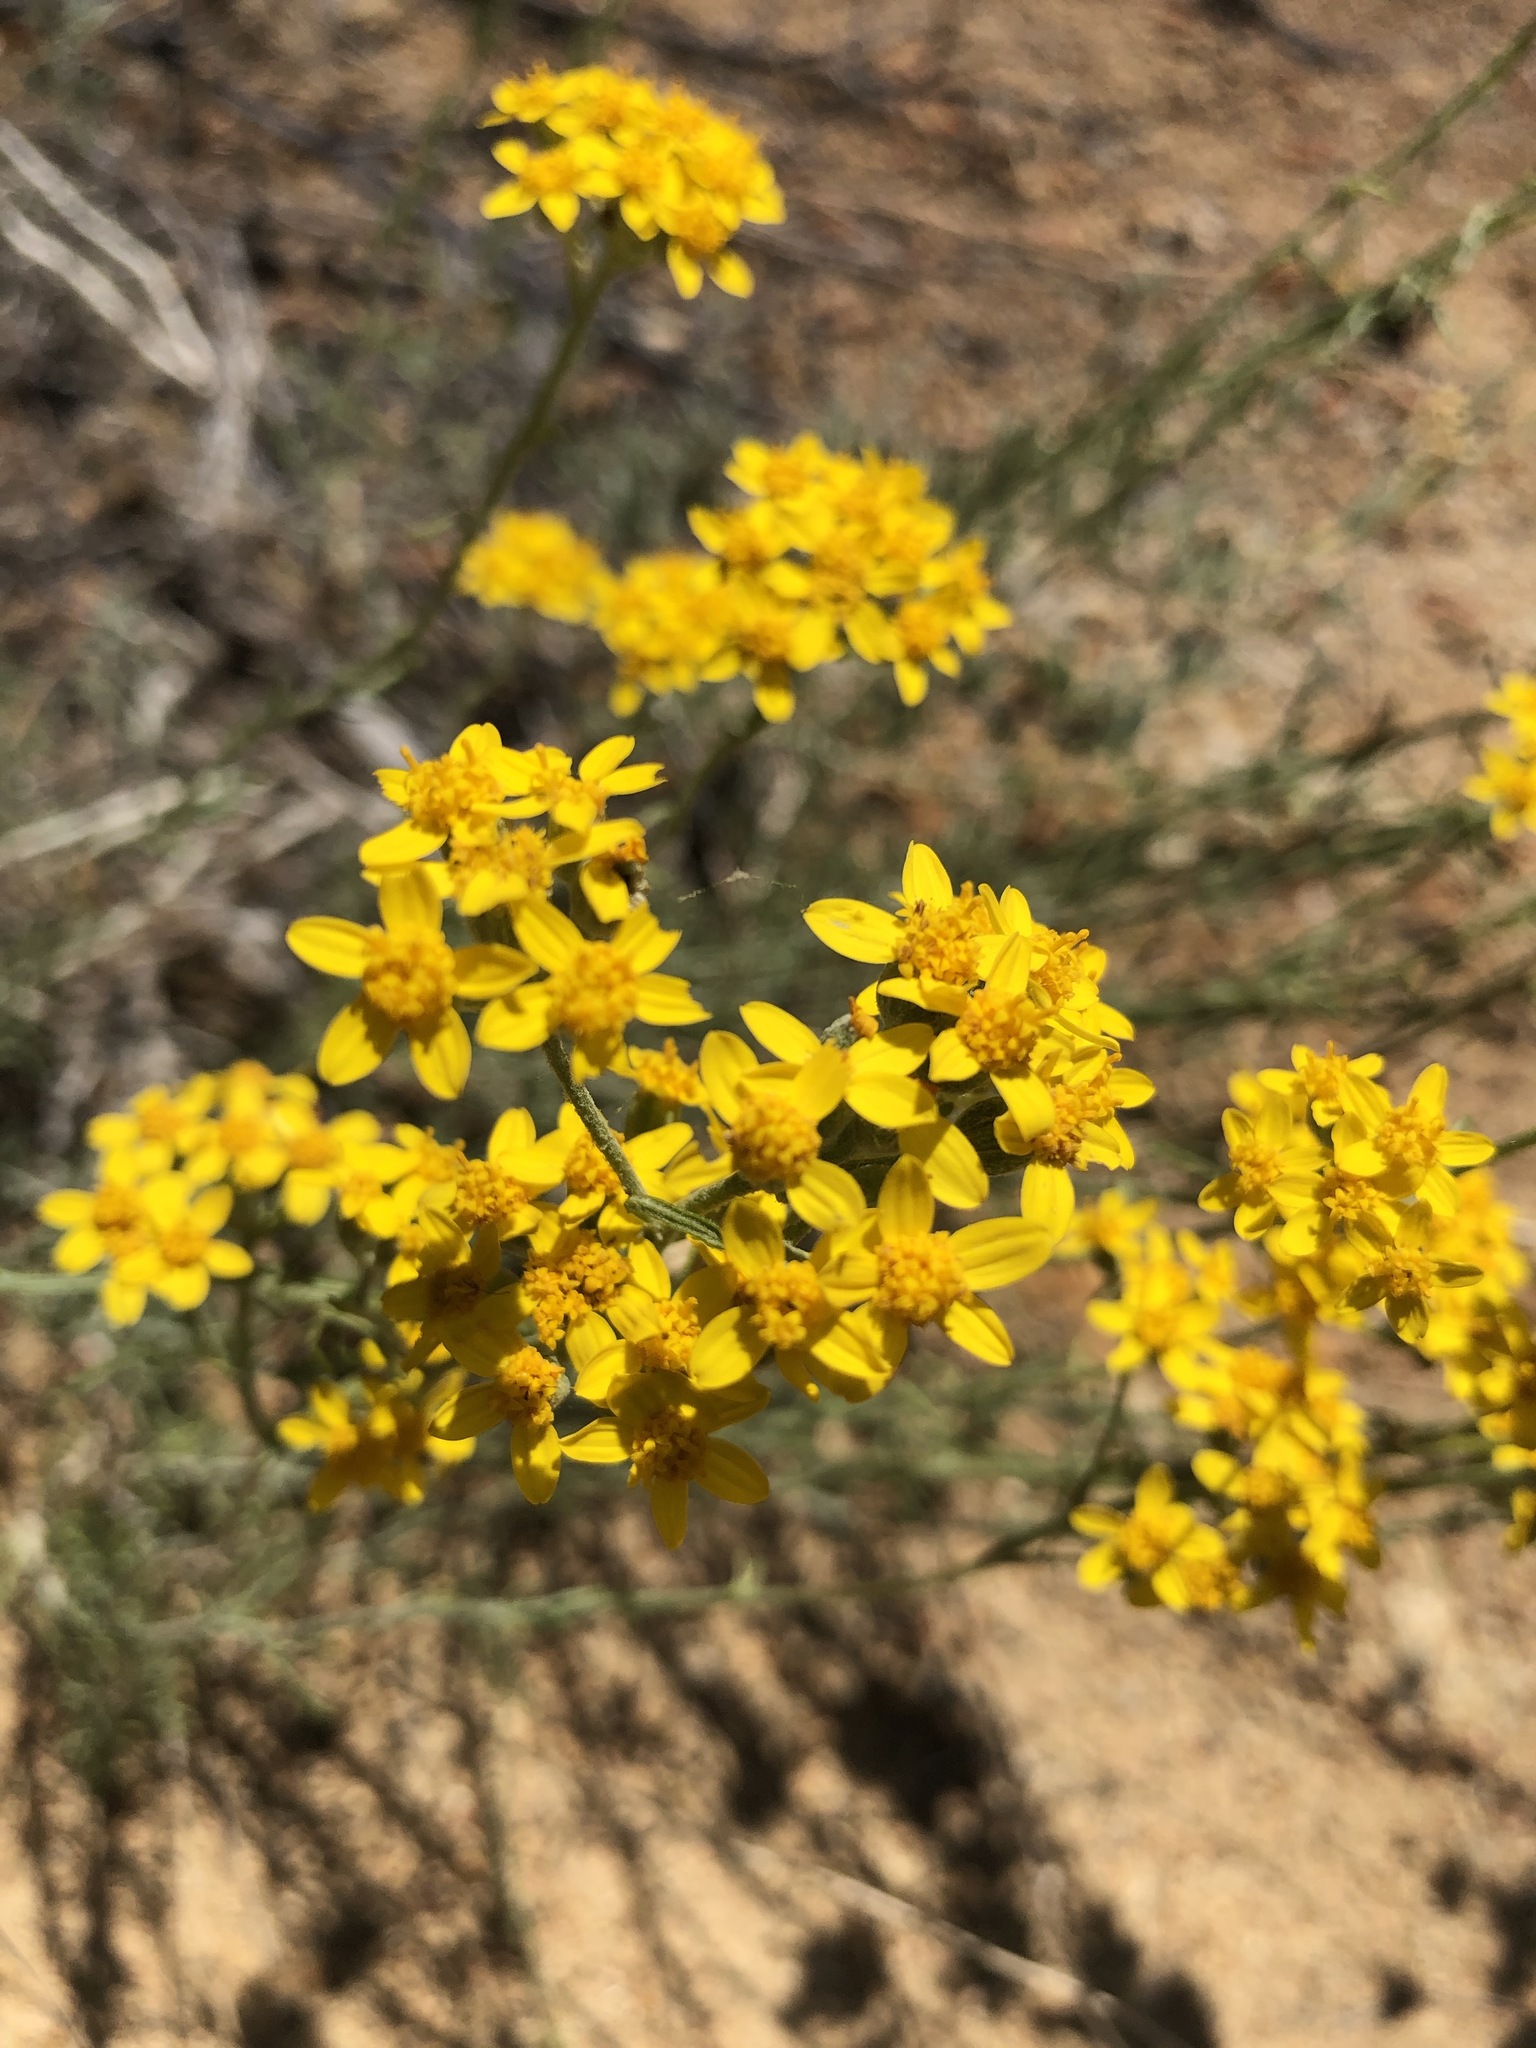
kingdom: Plantae
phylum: Tracheophyta
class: Magnoliopsida
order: Asterales
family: Asteraceae
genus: Eriophyllum
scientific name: Eriophyllum confertiflorum
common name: Golden-yarrow
